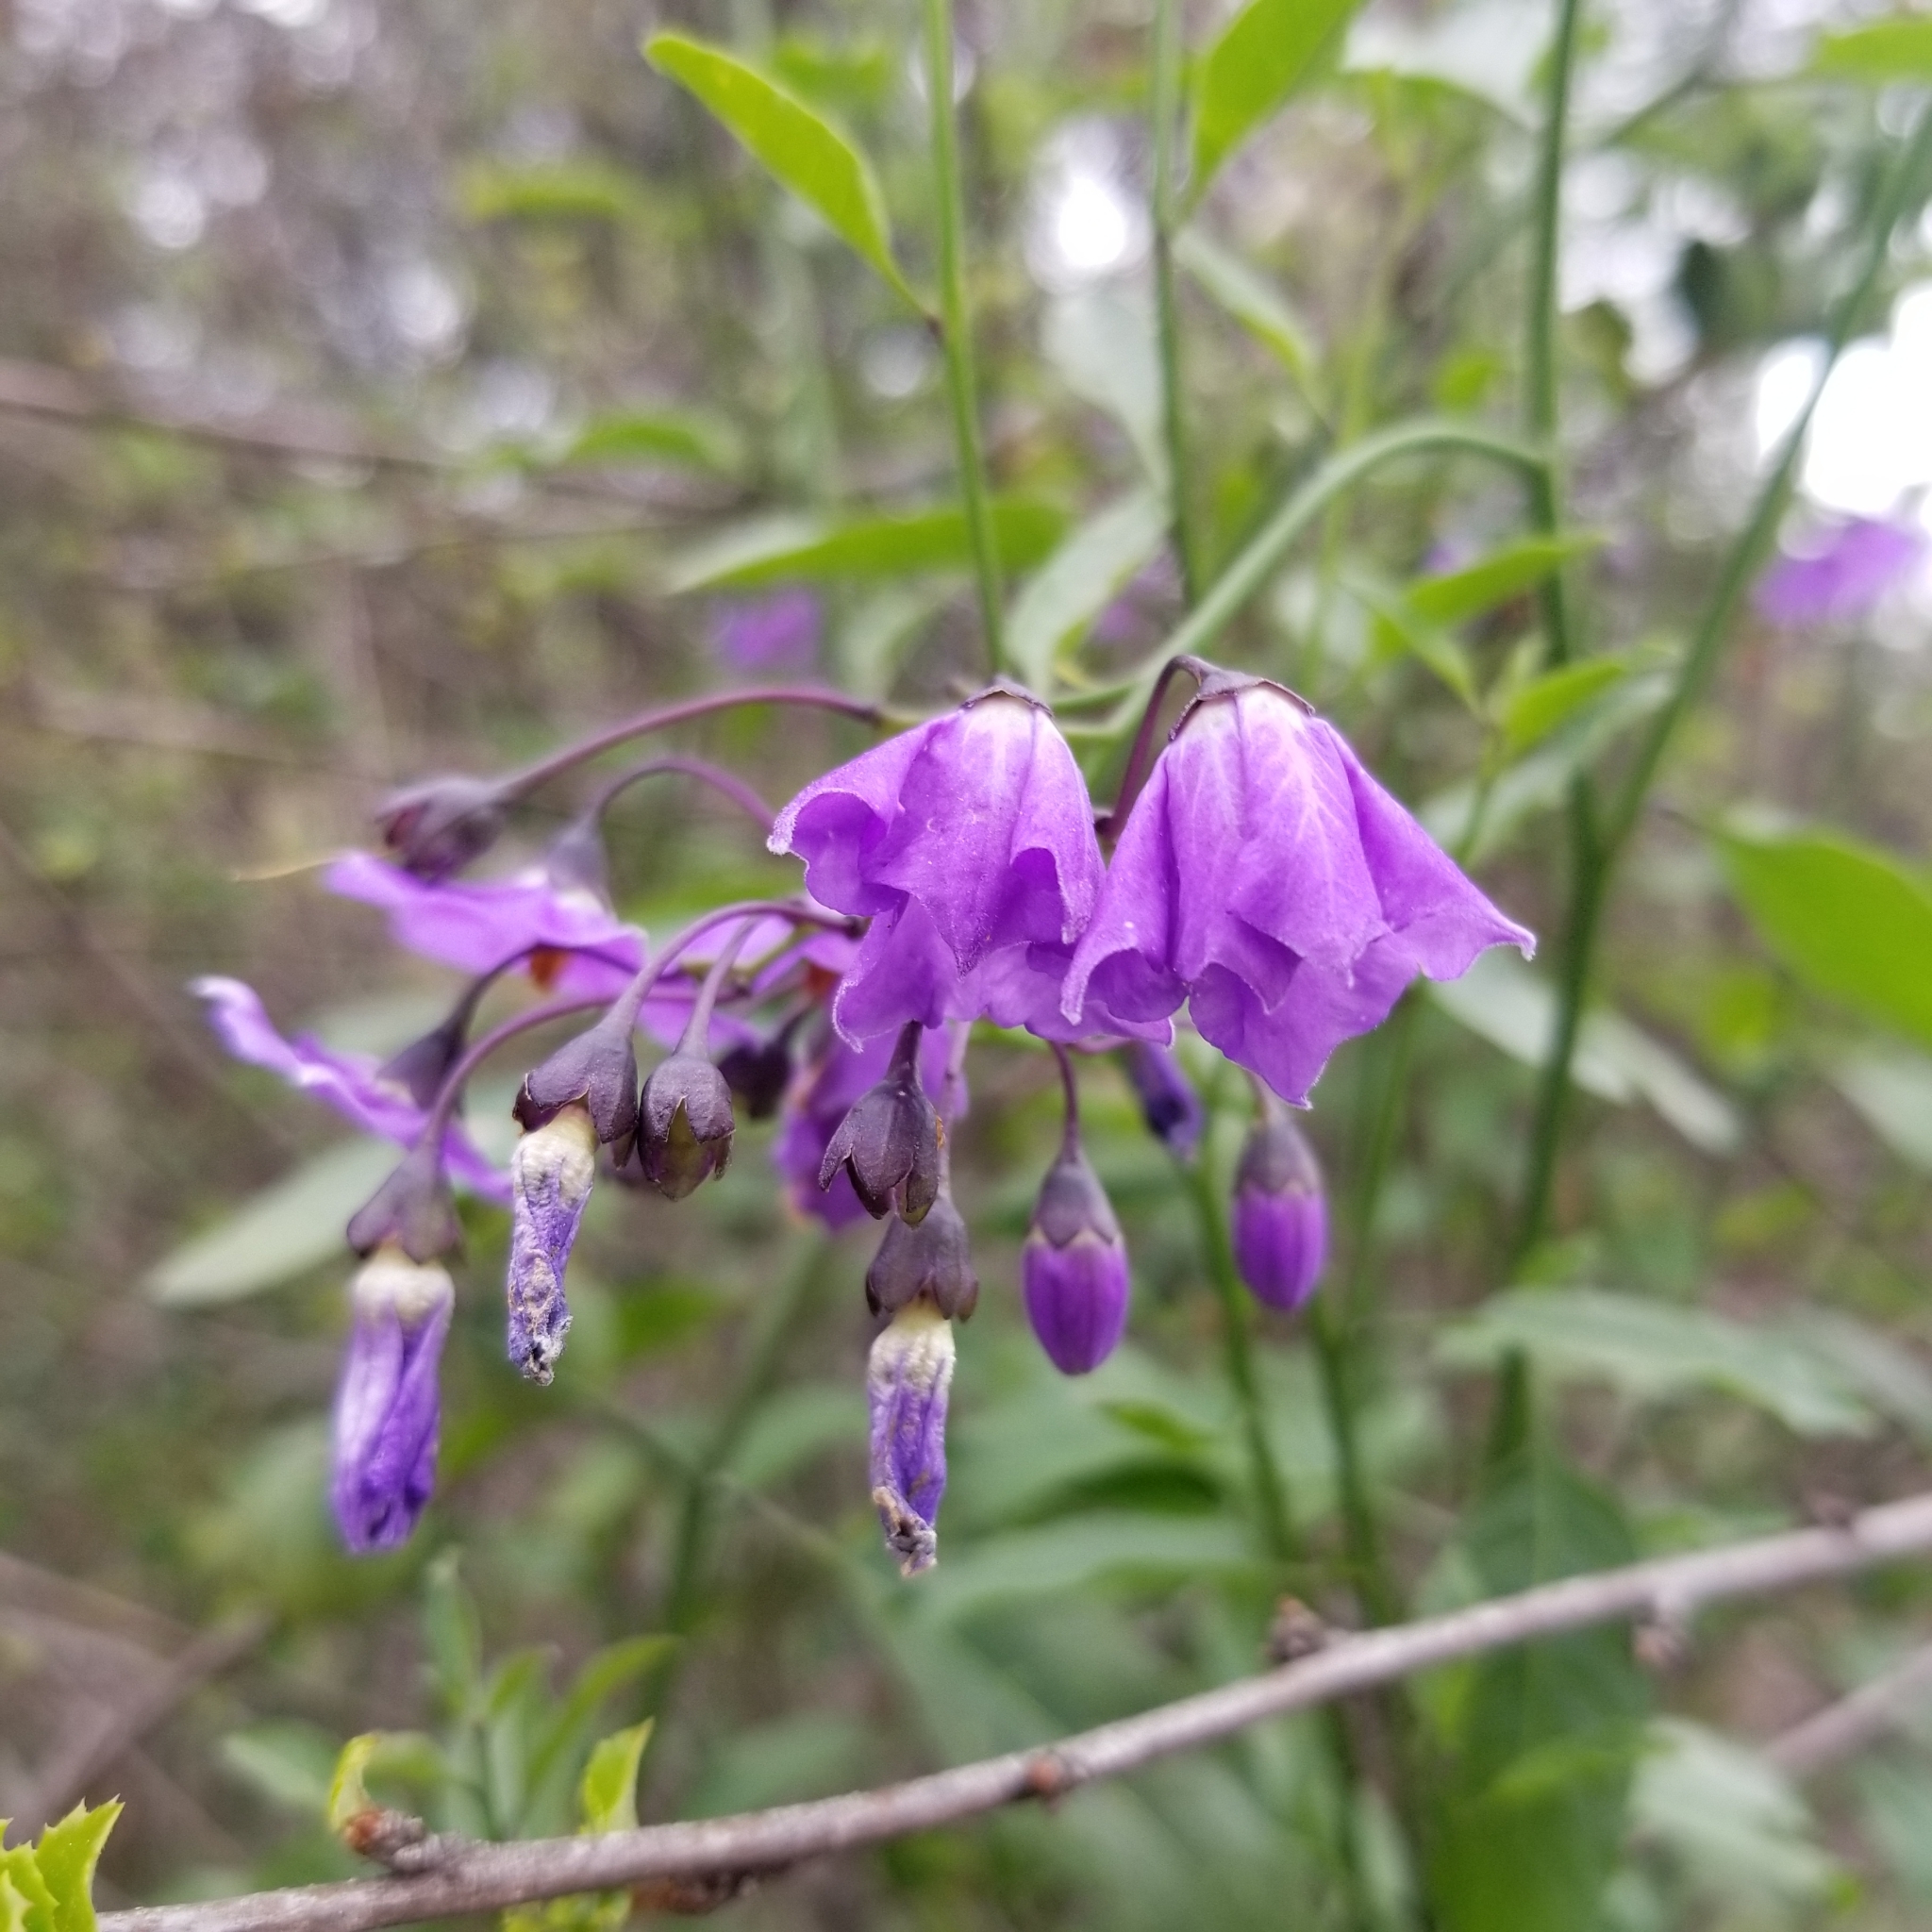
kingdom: Plantae
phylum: Tracheophyta
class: Magnoliopsida
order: Solanales
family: Solanaceae
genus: Solanum
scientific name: Solanum umbelliferum
